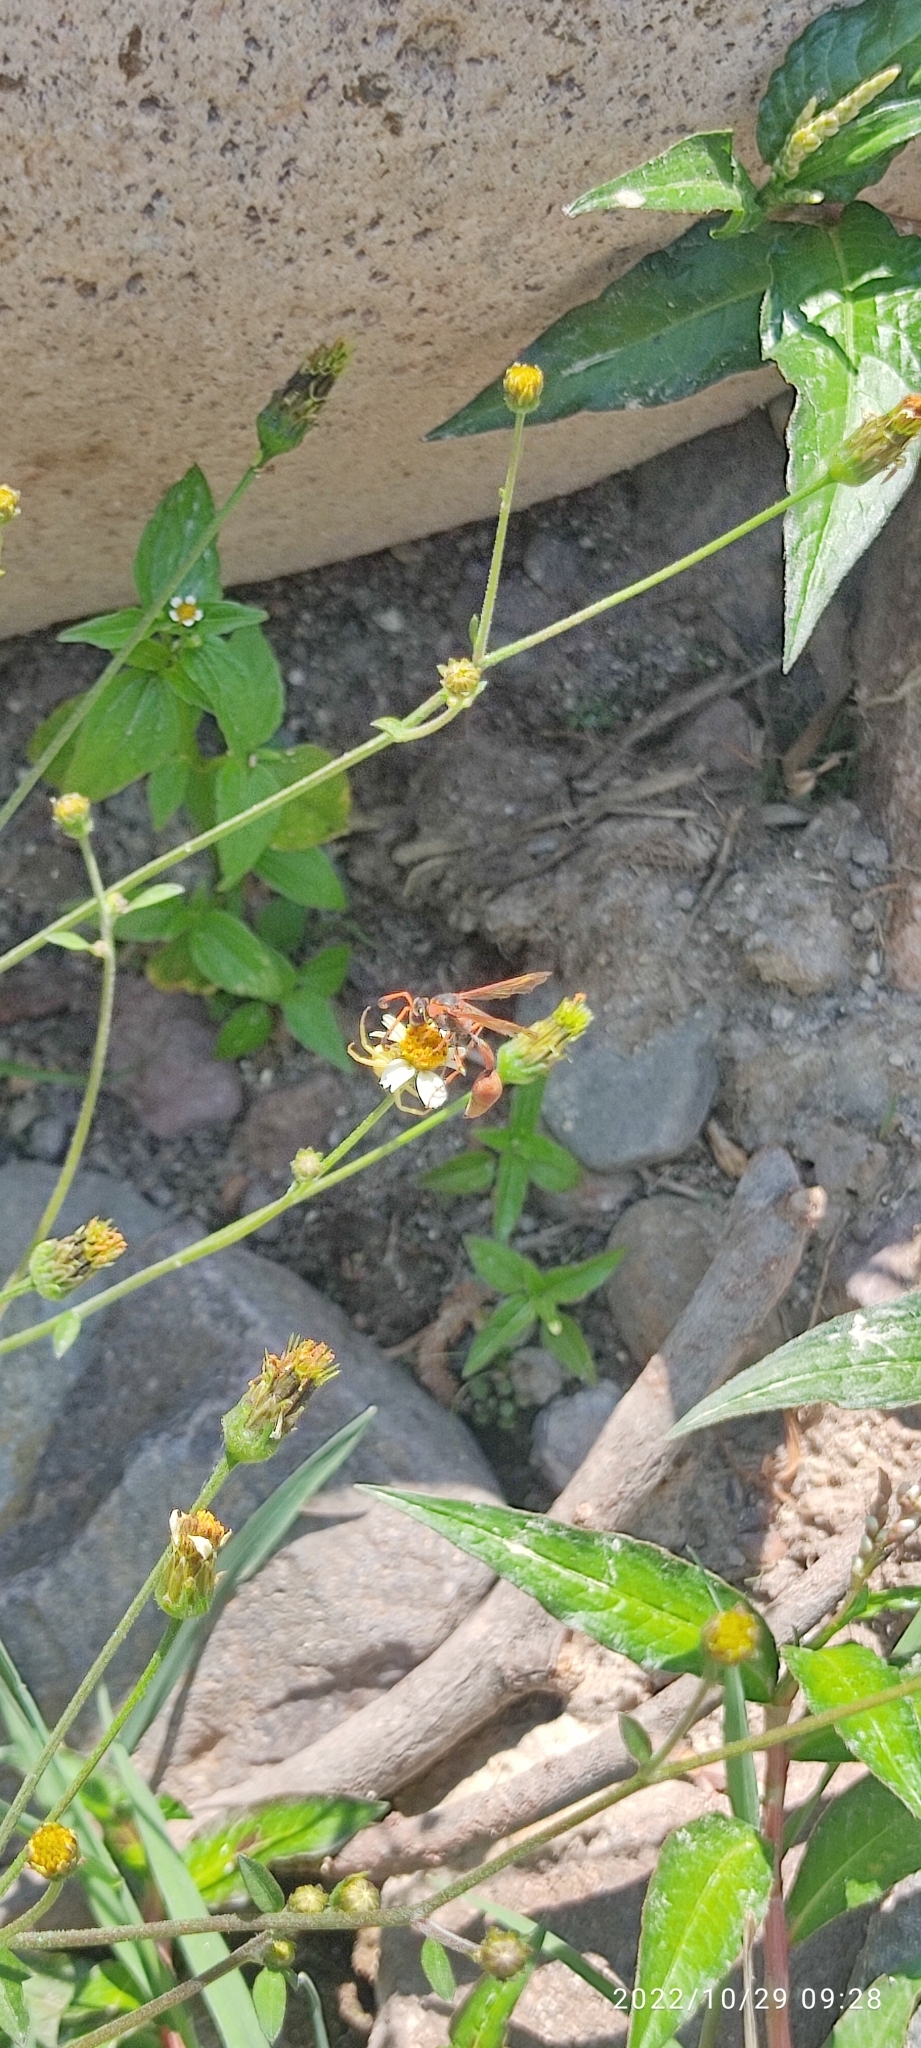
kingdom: Animalia
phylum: Arthropoda
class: Insecta
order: Hymenoptera
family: Eumenidae
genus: Zeta
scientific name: Zeta argillaceum
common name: Potter wasp
